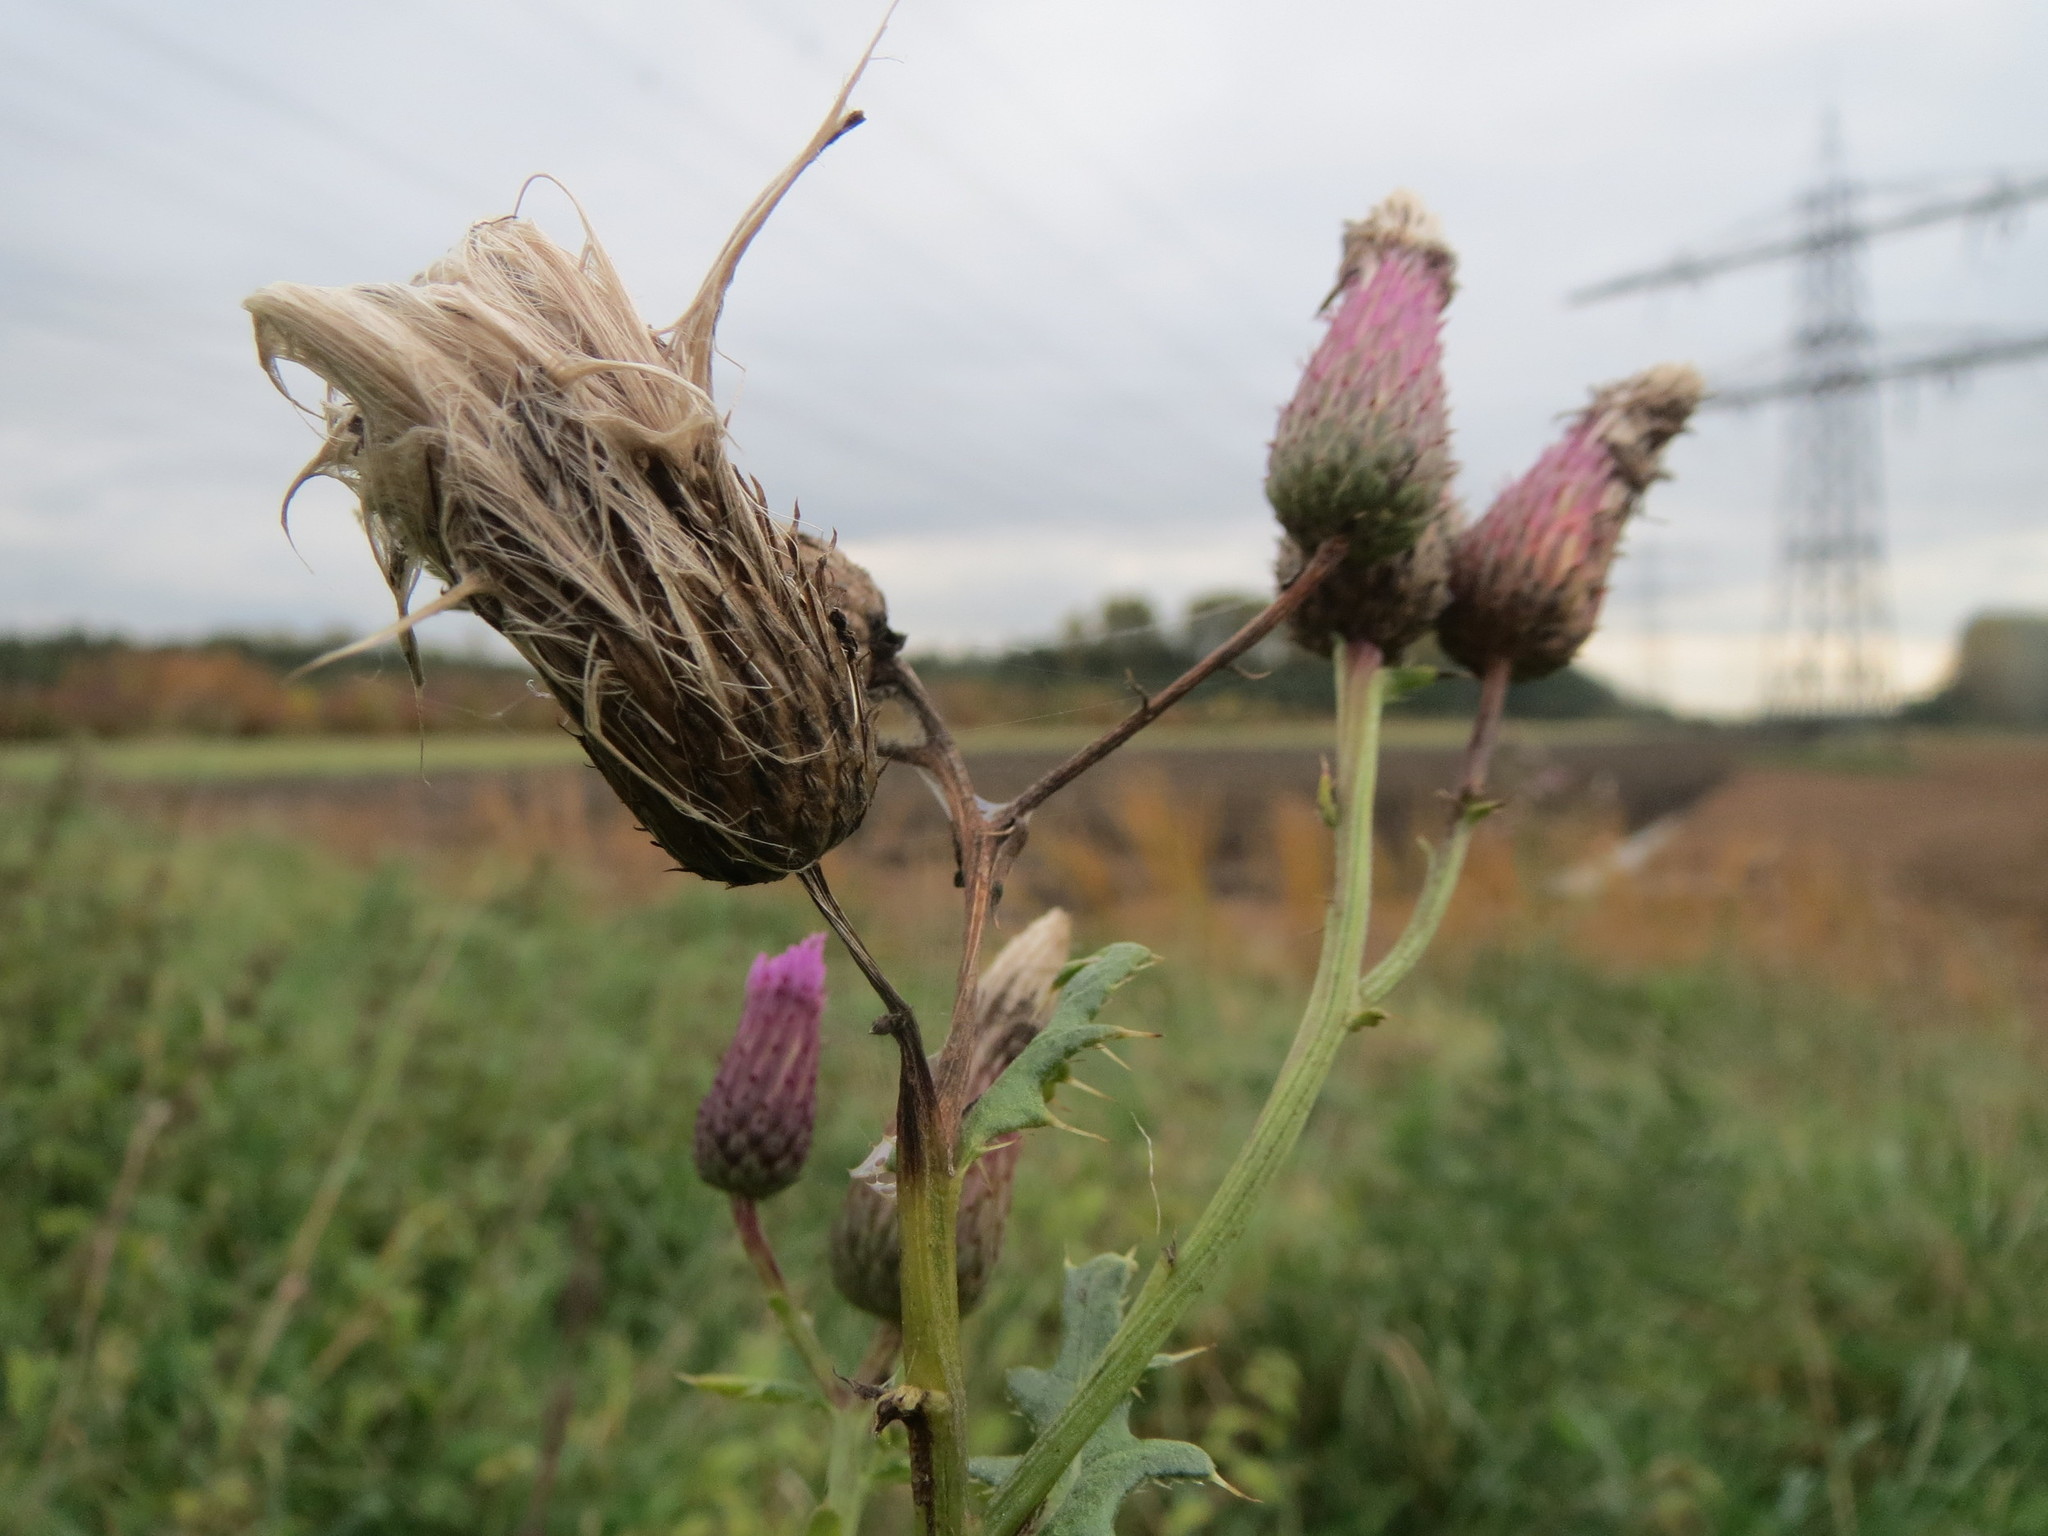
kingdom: Plantae
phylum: Tracheophyta
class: Magnoliopsida
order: Asterales
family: Asteraceae
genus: Cirsium
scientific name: Cirsium arvense
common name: Creeping thistle
